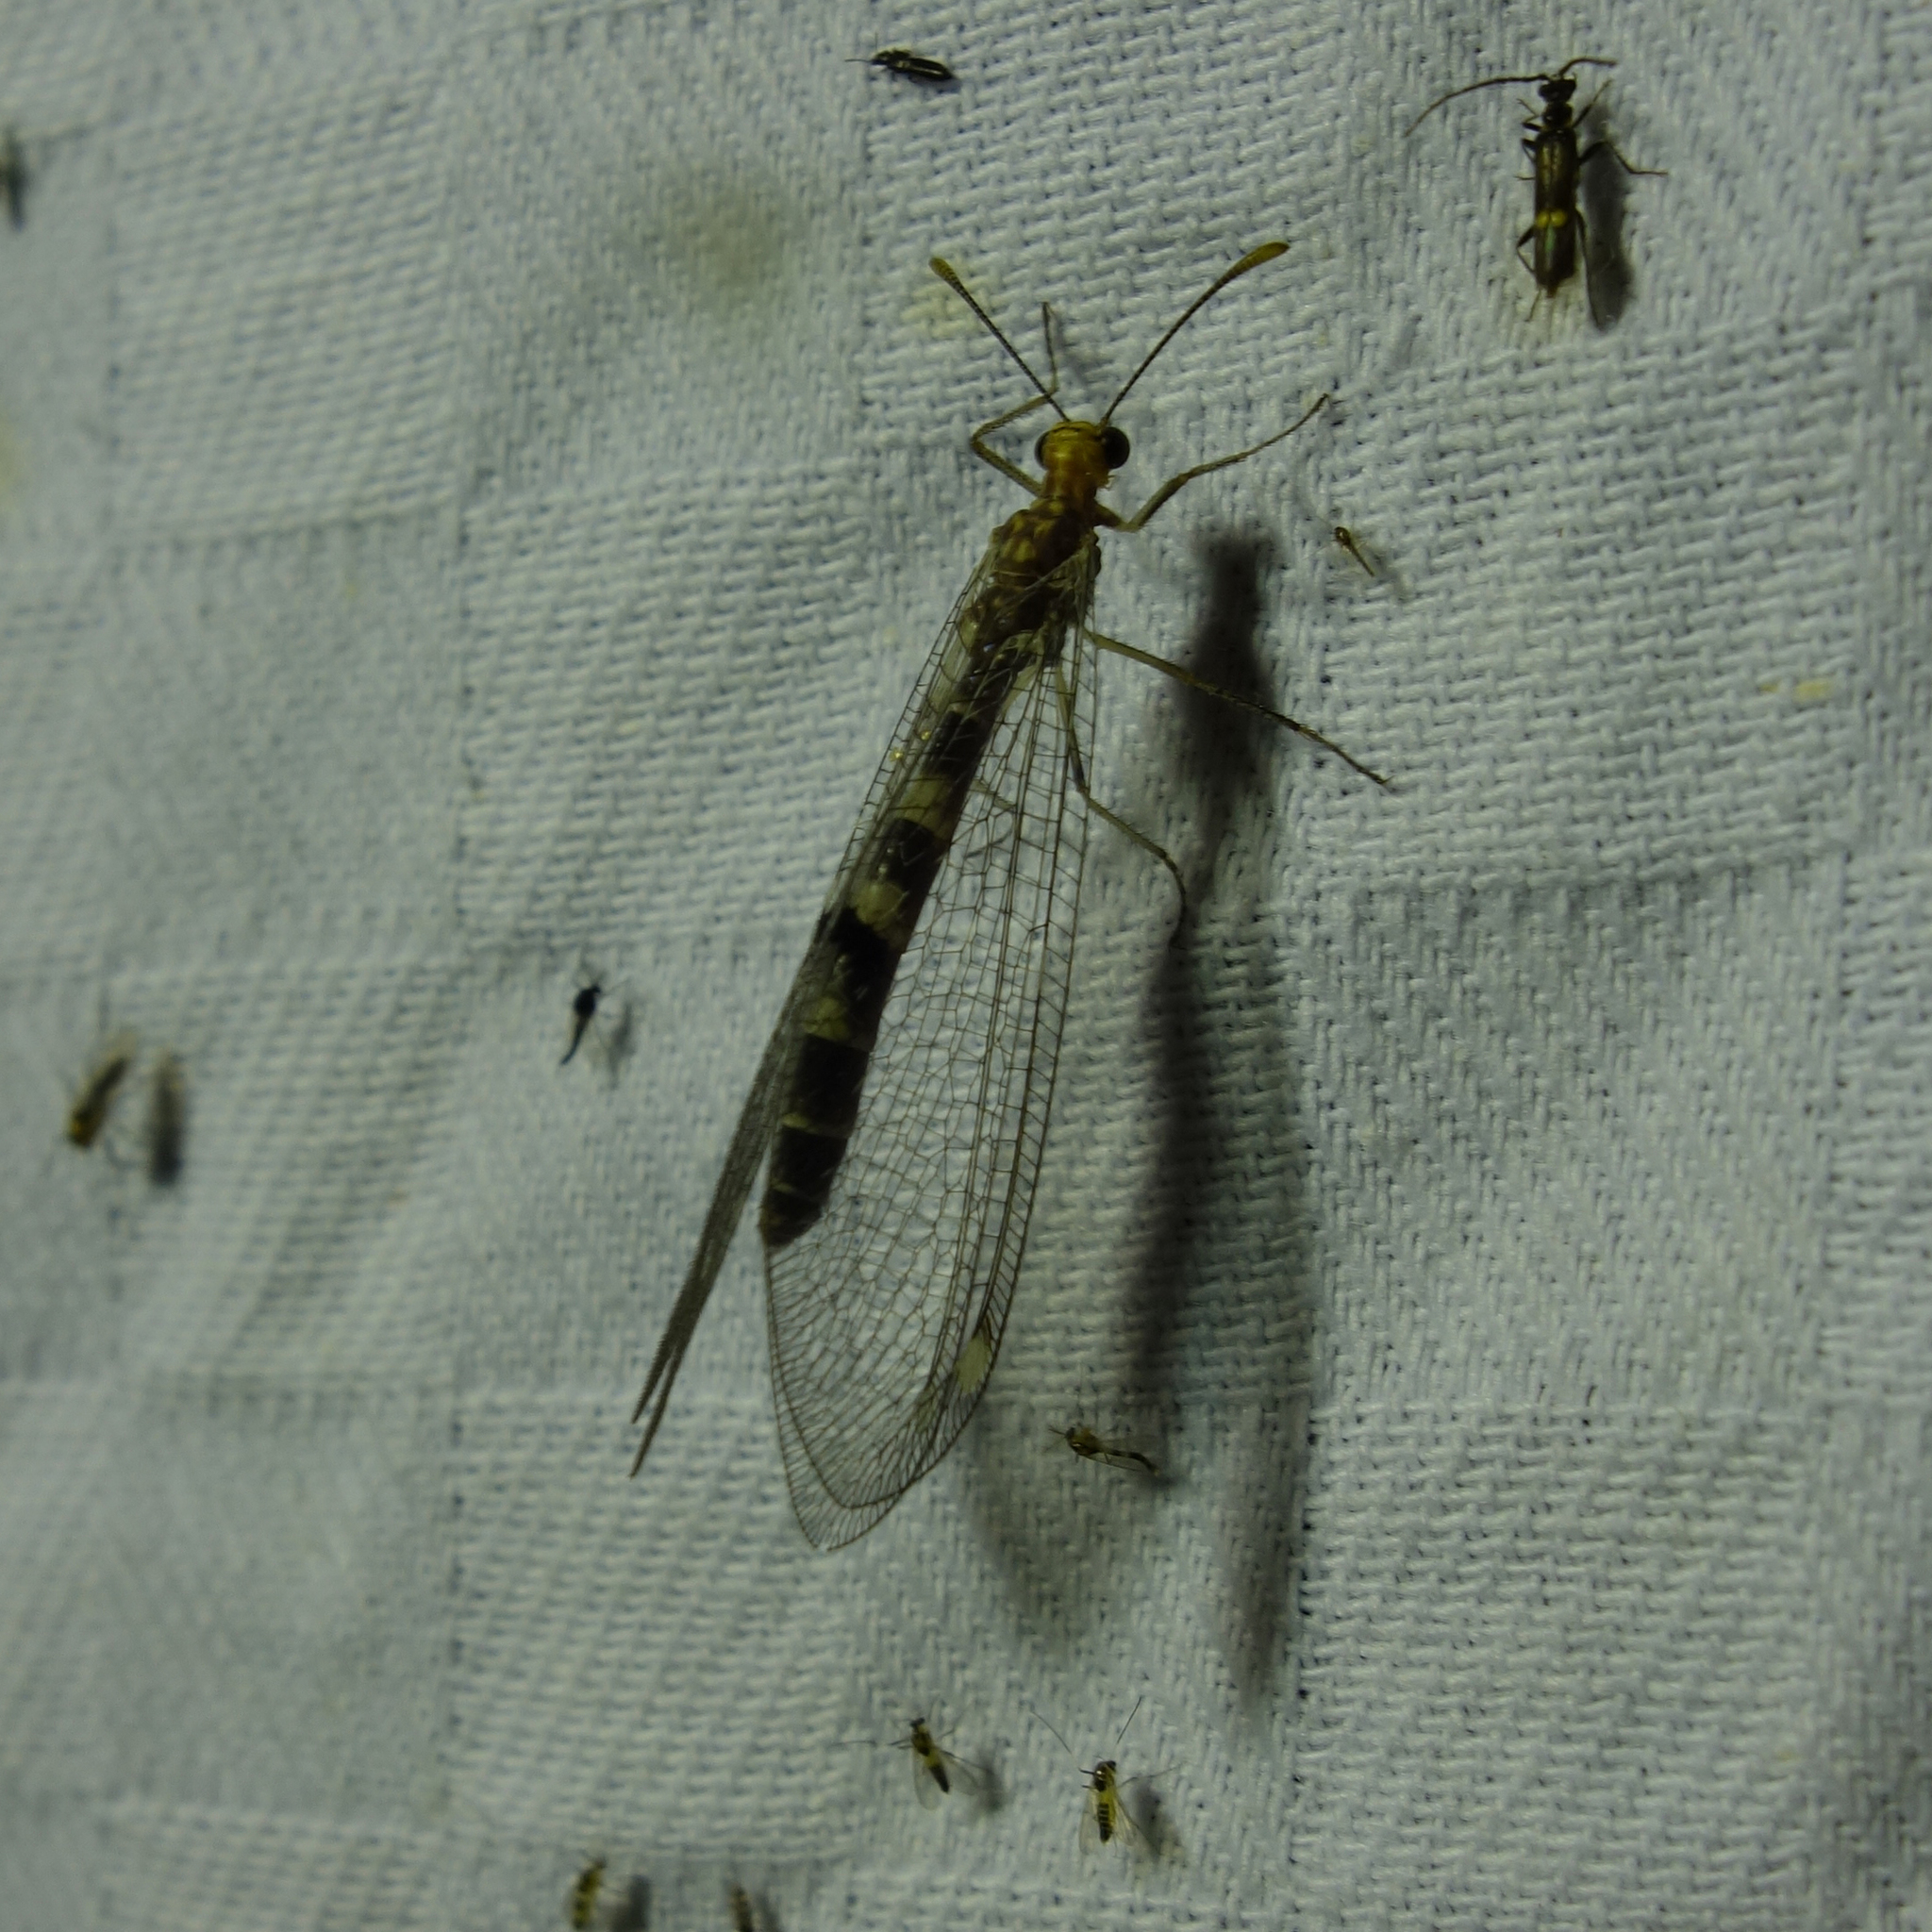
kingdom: Animalia
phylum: Arthropoda
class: Insecta
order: Neuroptera
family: Myrmeleontidae
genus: Megistopus
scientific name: Megistopus flavicornis
